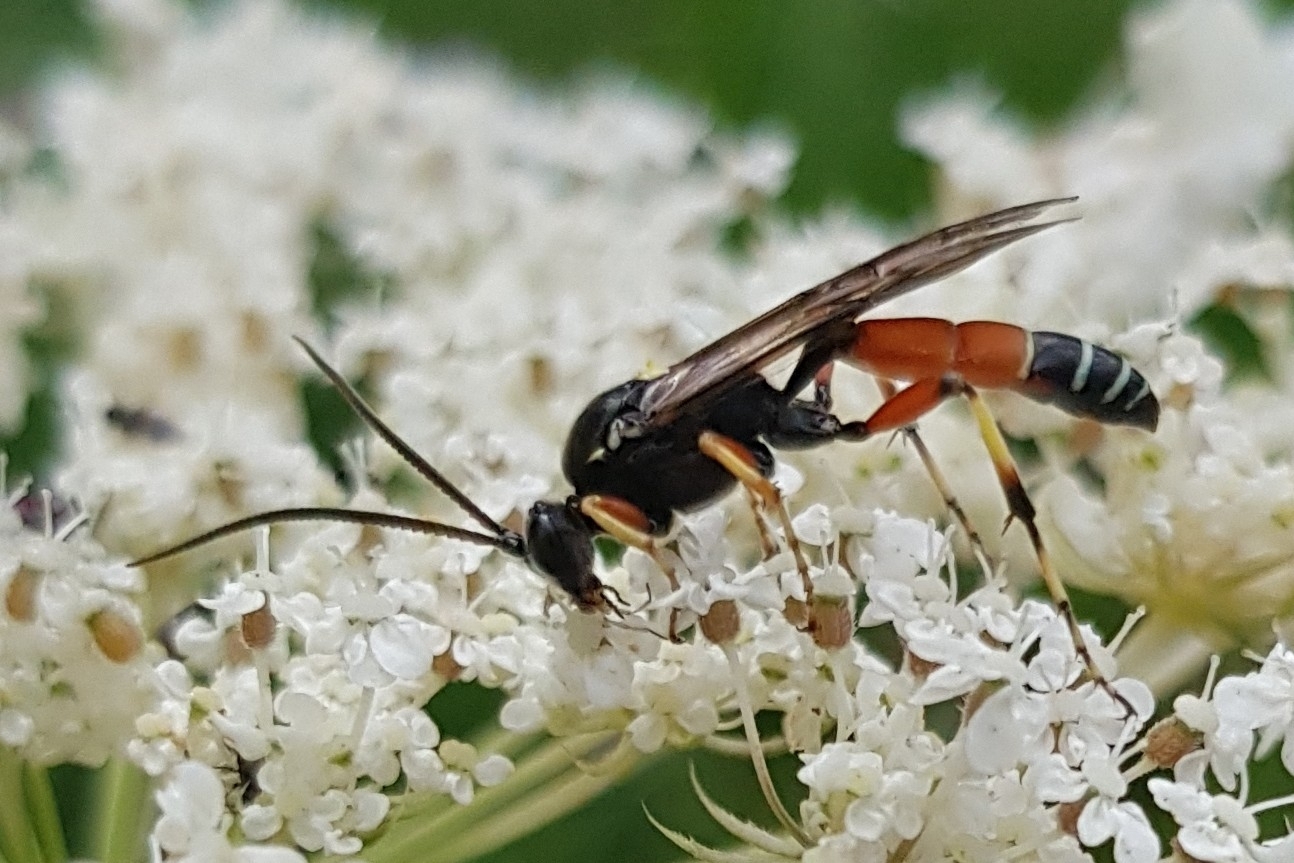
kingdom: Animalia
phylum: Arthropoda
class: Insecta
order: Hymenoptera
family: Ichneumonidae
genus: Ctenichneumon
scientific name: Ctenichneumon panzeri
